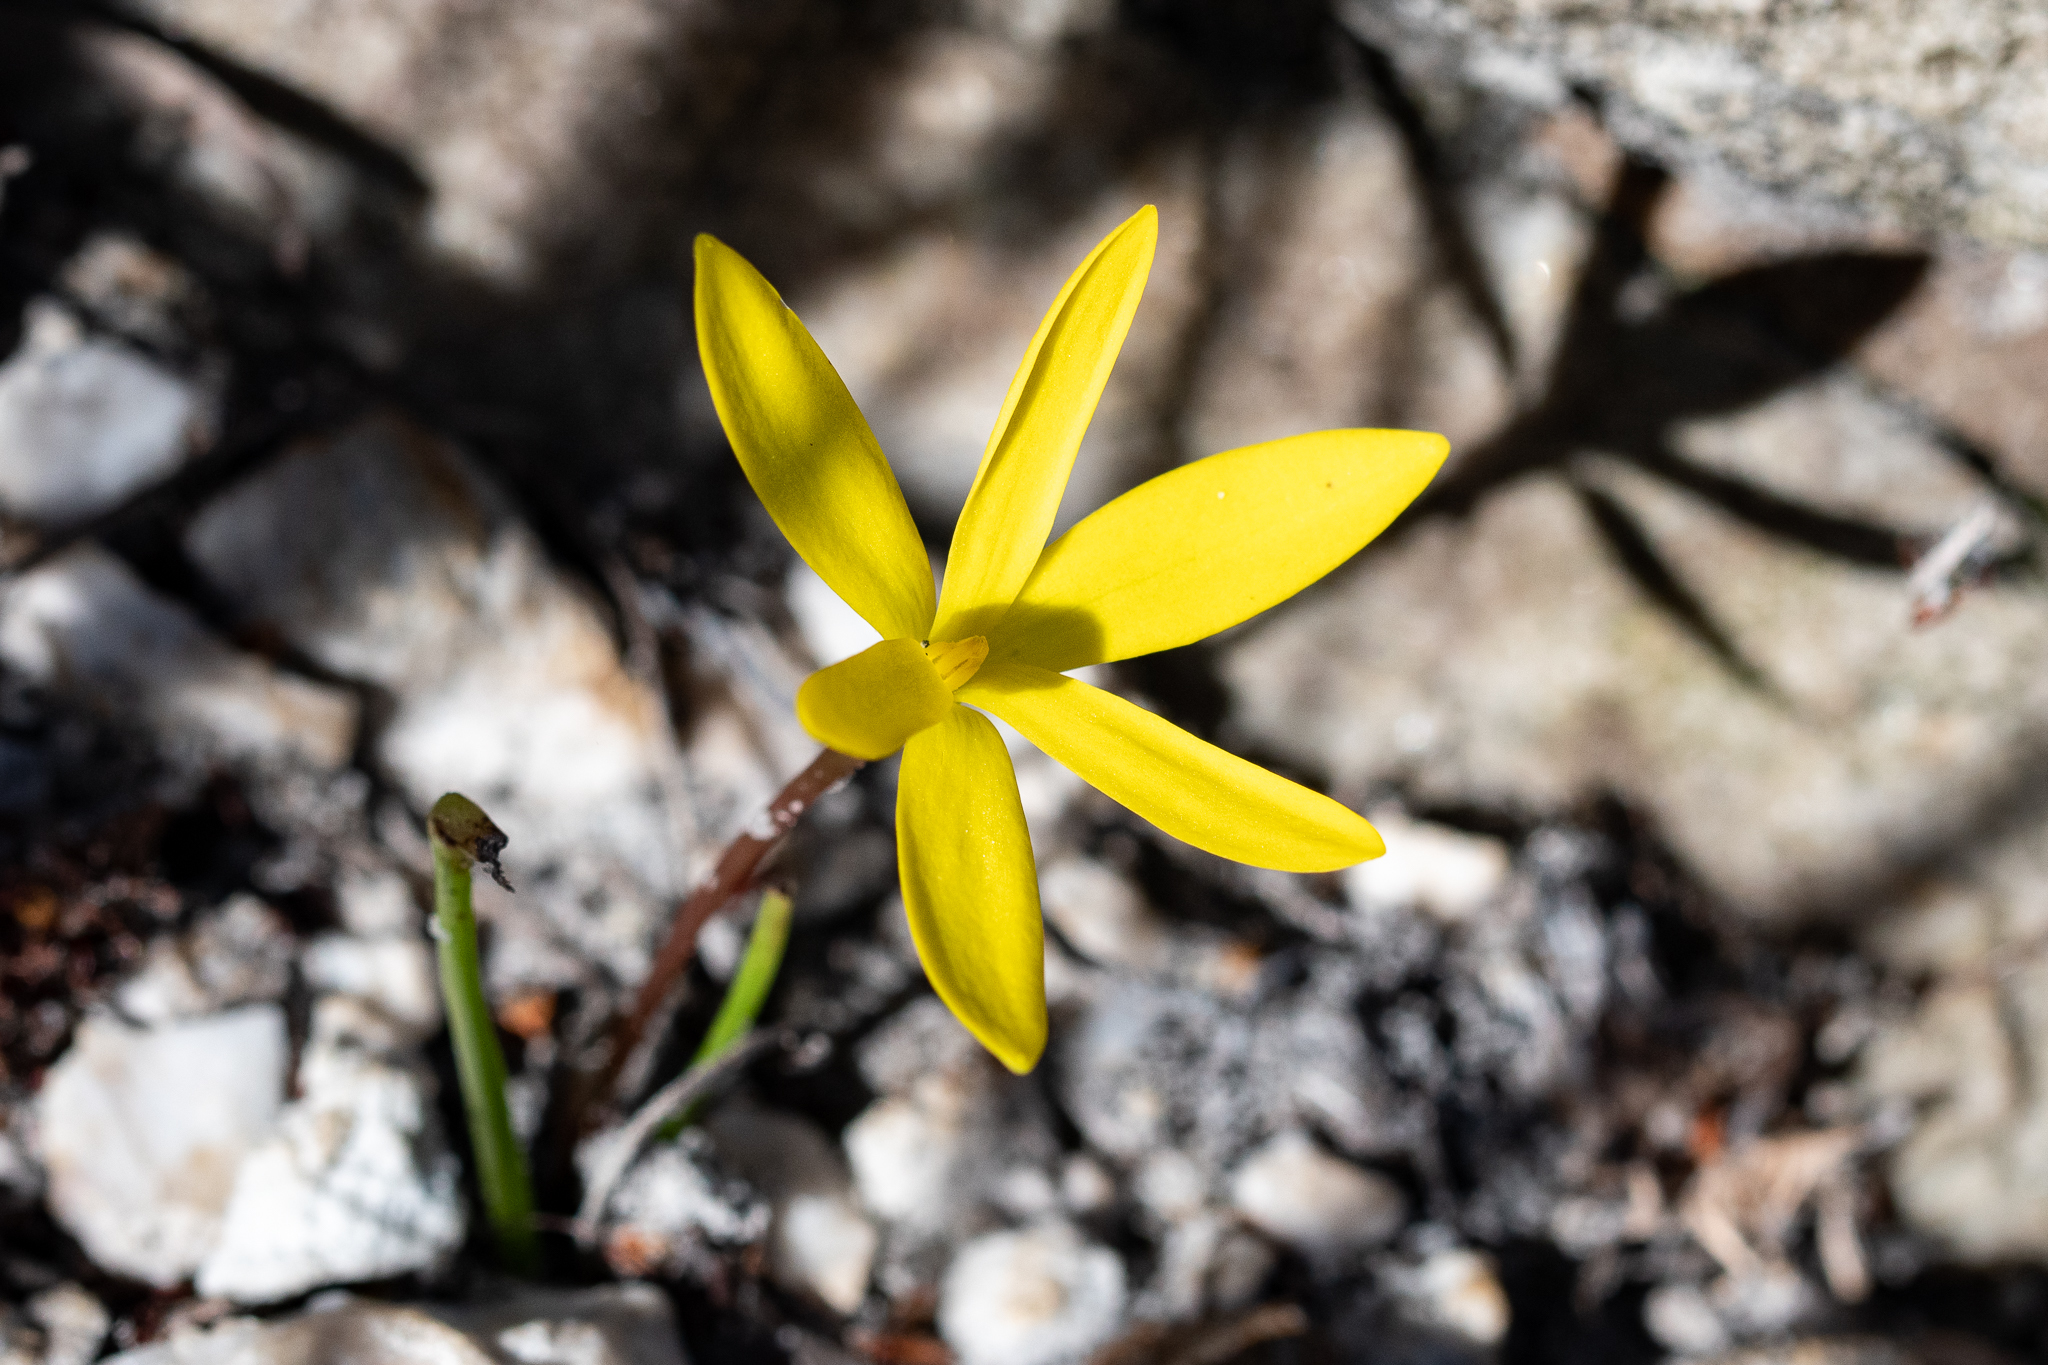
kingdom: Plantae
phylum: Tracheophyta
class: Liliopsida
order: Asparagales
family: Hypoxidaceae
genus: Pauridia
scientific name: Pauridia monophylla
